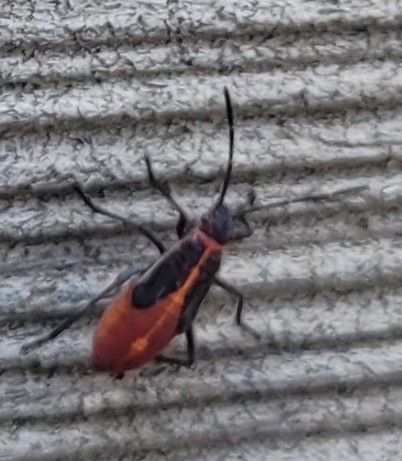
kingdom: Animalia
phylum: Arthropoda
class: Insecta
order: Hemiptera
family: Rhopalidae
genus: Boisea
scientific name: Boisea trivittata
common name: Boxelder bug
